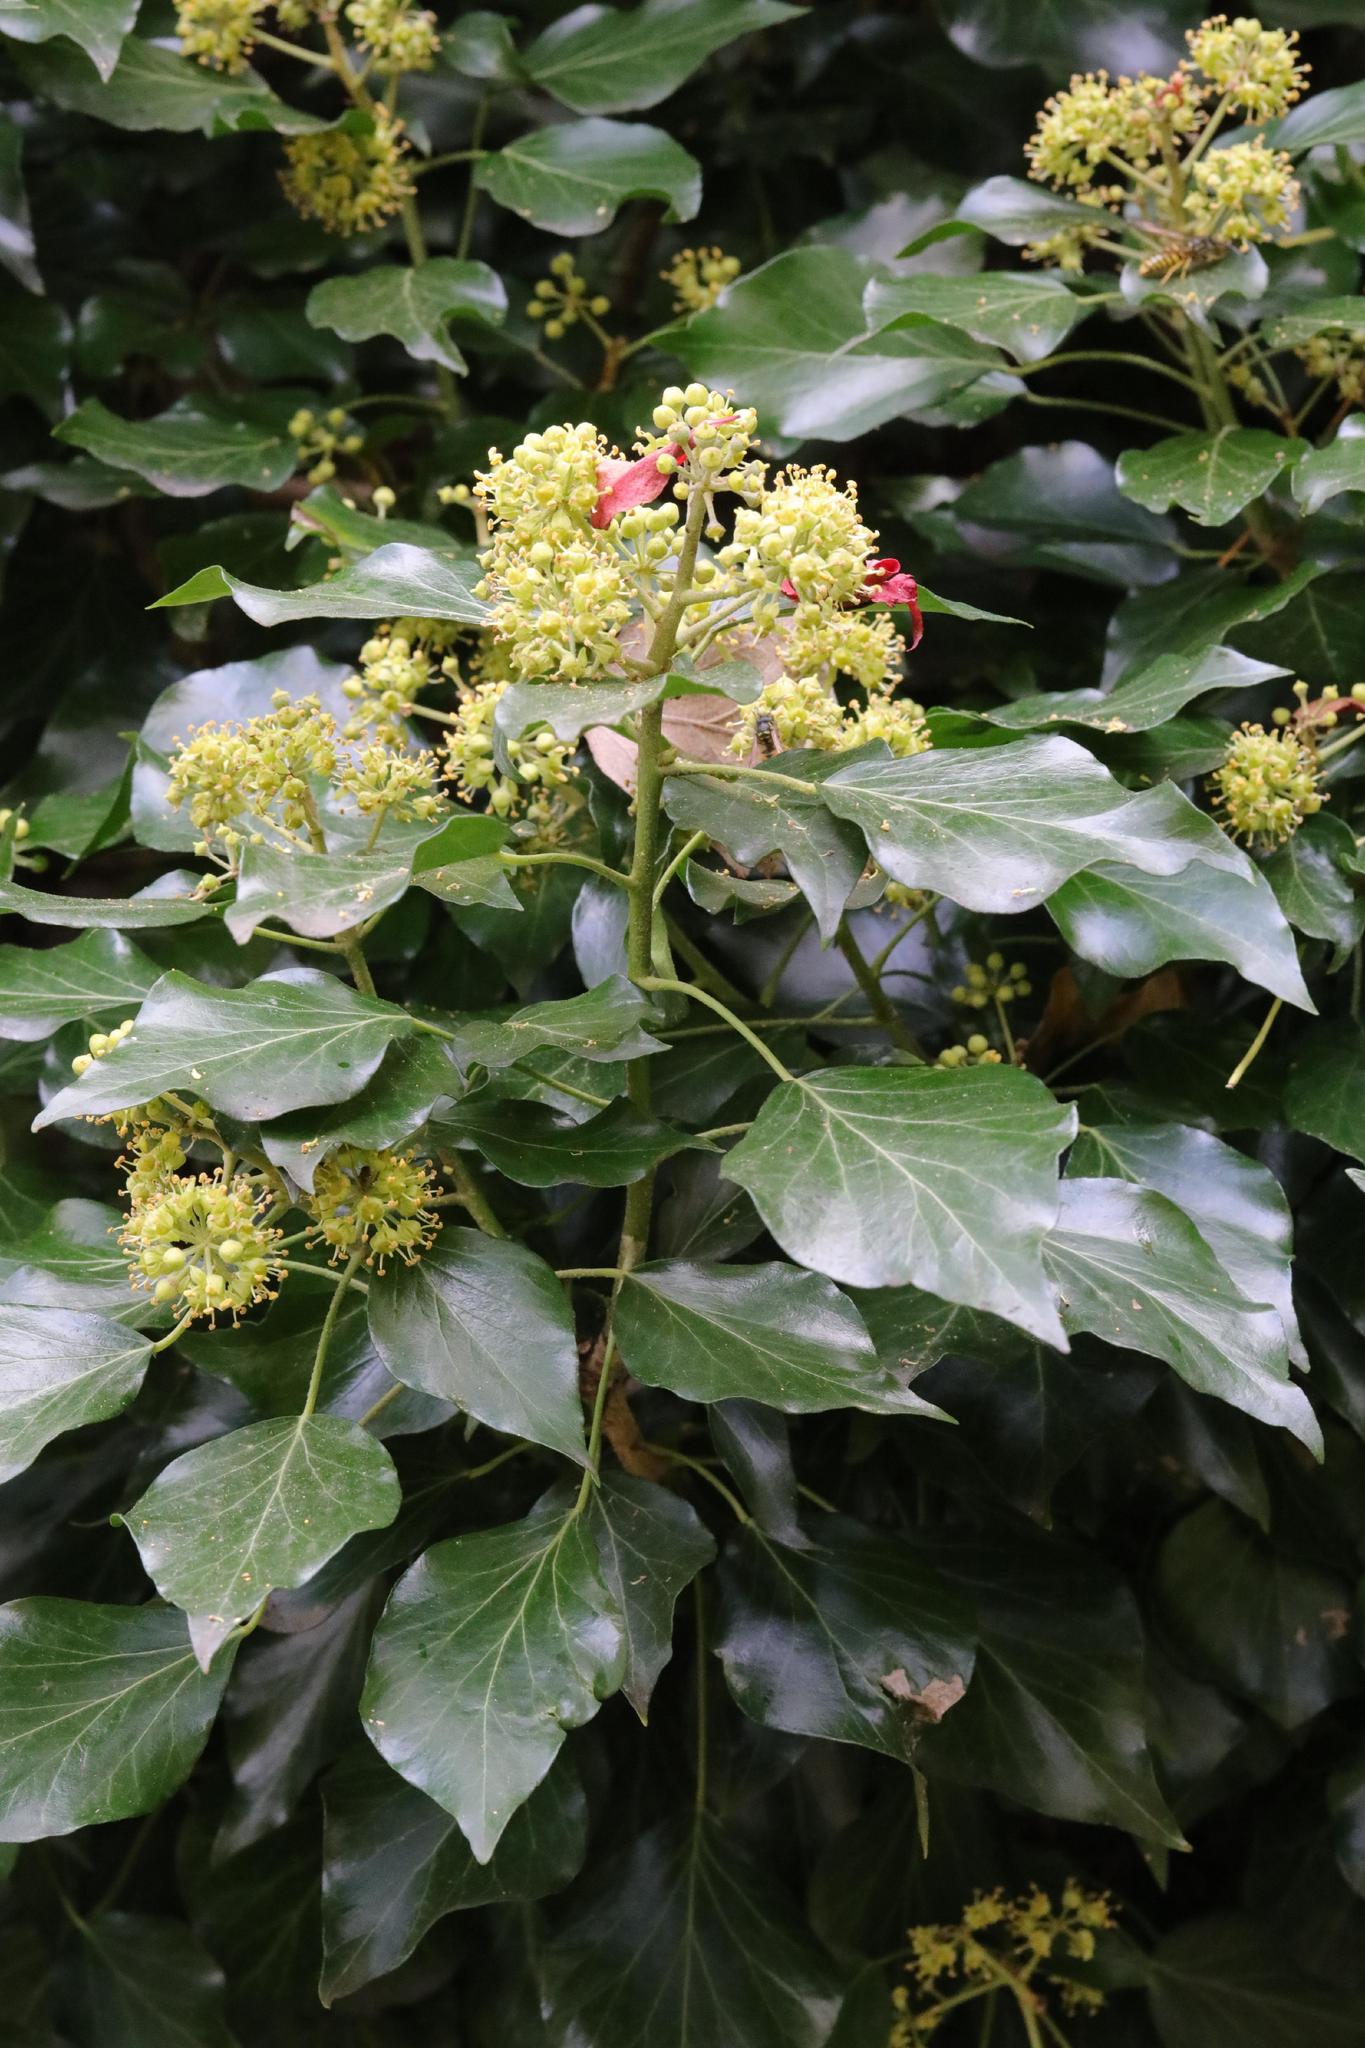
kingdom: Plantae
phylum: Tracheophyta
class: Magnoliopsida
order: Apiales
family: Araliaceae
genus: Hedera
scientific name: Hedera helix
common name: Ivy
